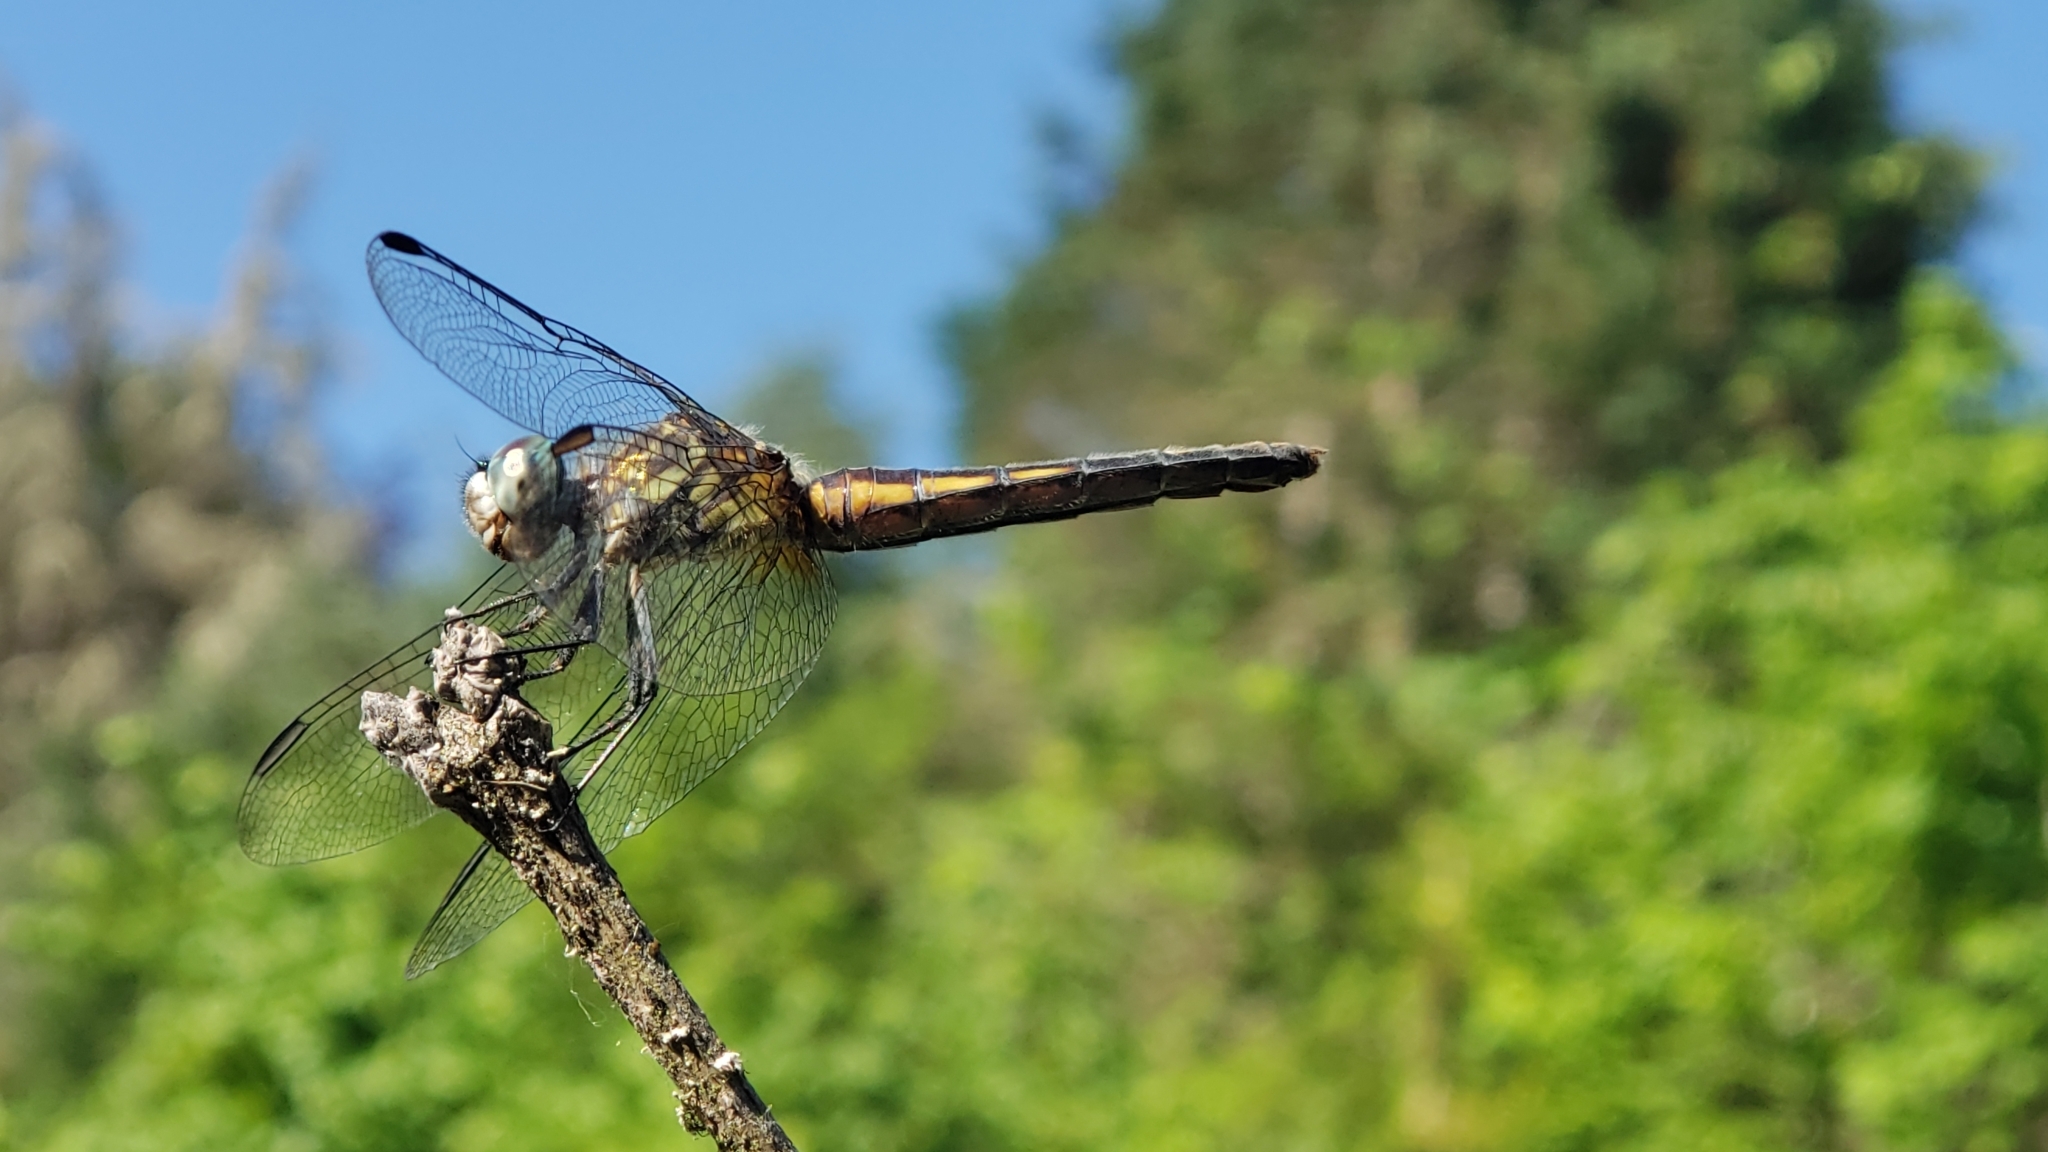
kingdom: Animalia
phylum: Arthropoda
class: Insecta
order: Odonata
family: Libellulidae
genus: Pachydiplax
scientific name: Pachydiplax longipennis
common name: Blue dasher
